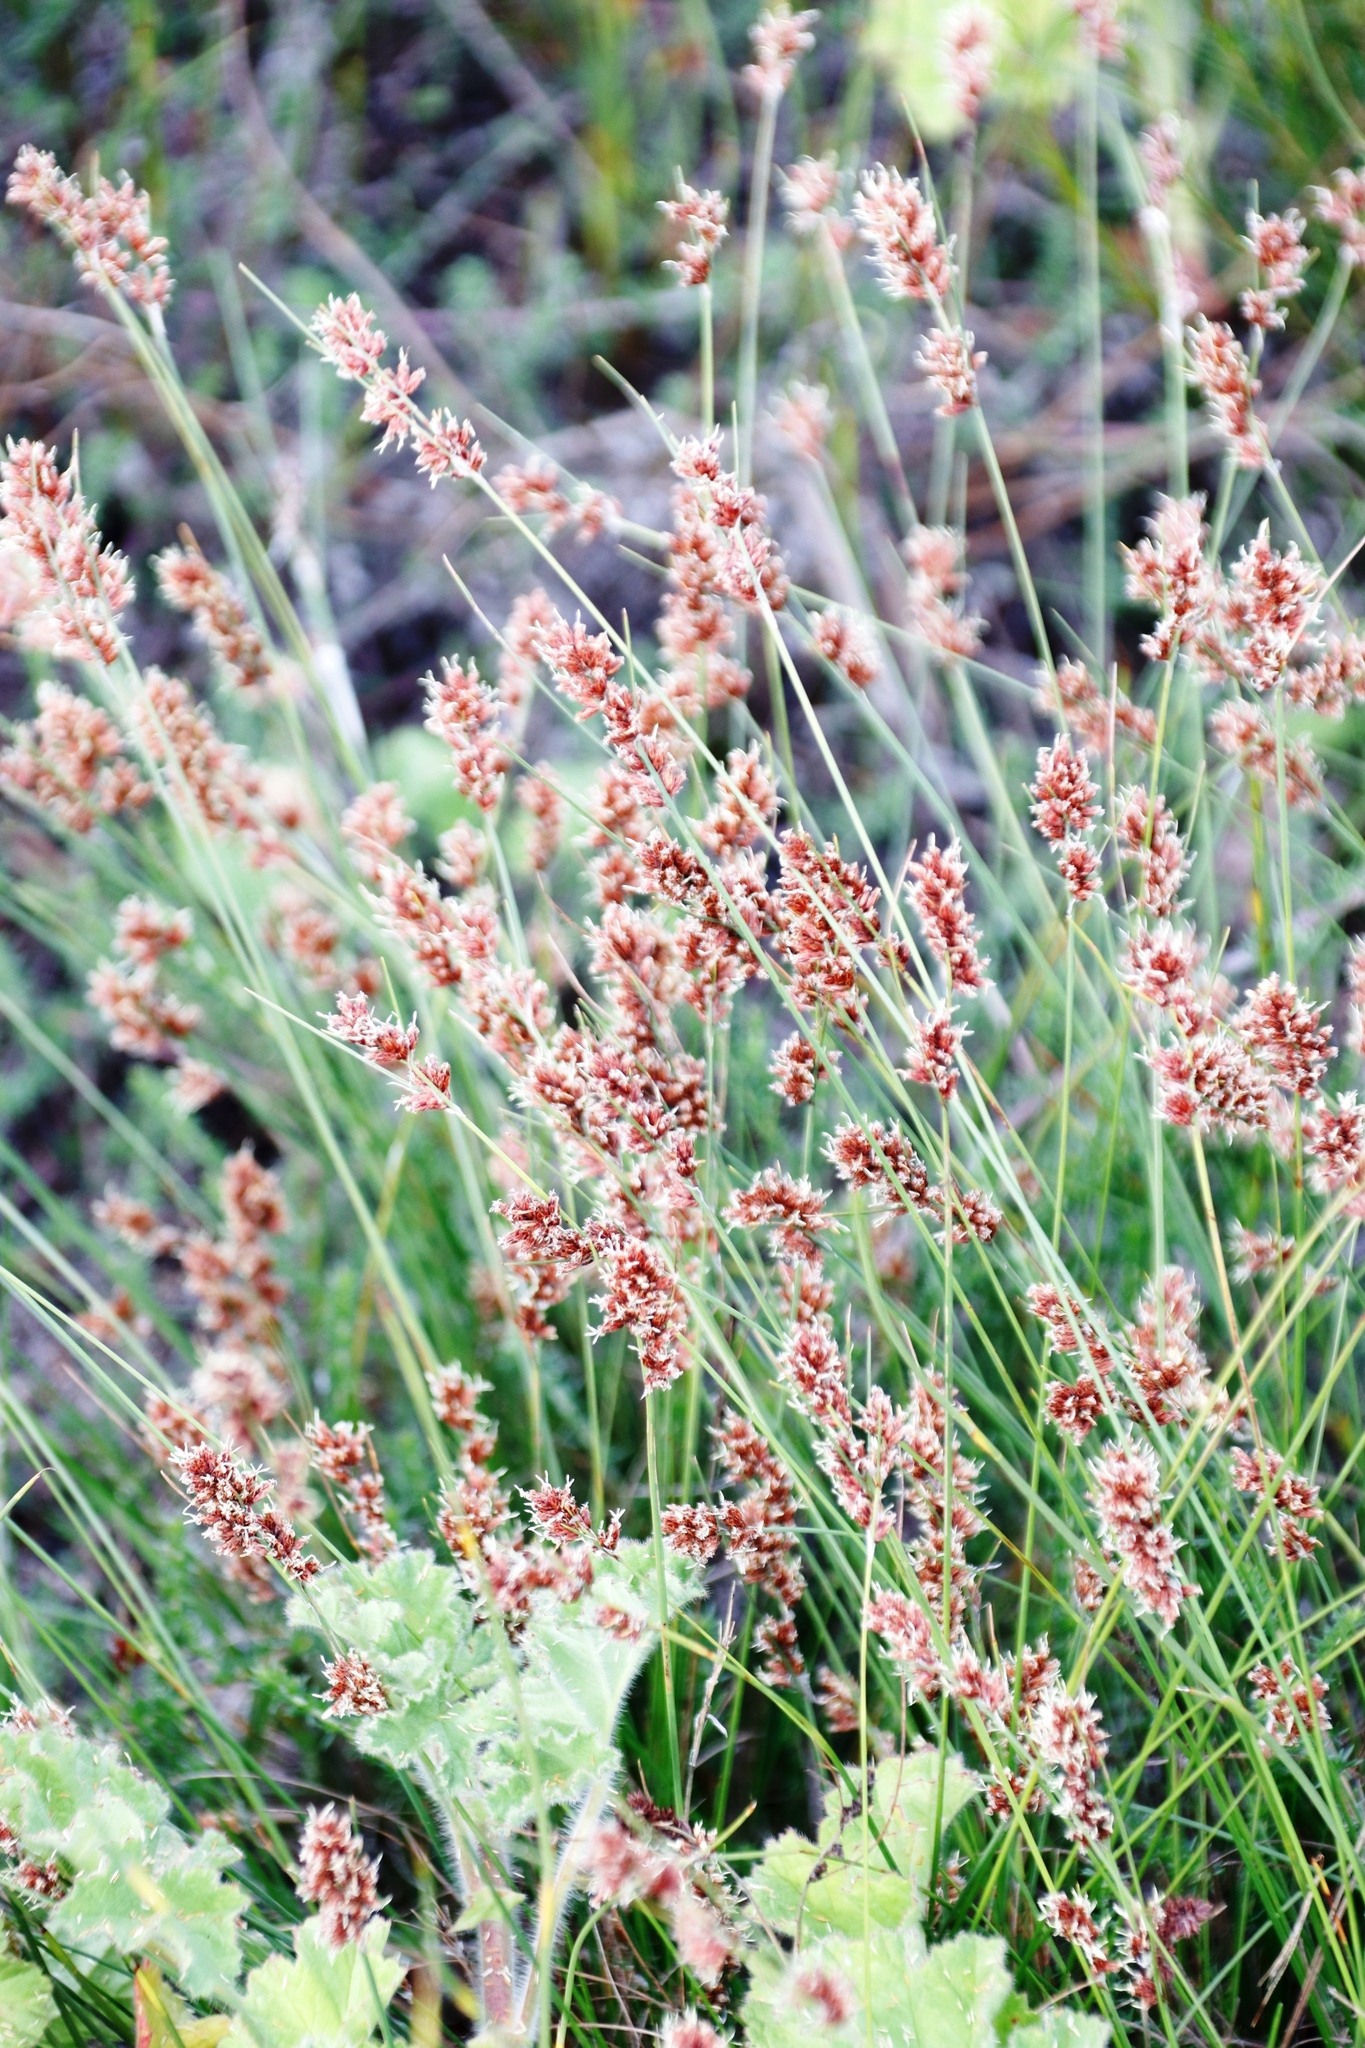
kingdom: Plantae
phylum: Tracheophyta
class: Liliopsida
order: Poales
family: Cyperaceae
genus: Ficinia
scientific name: Ficinia bulbosa
